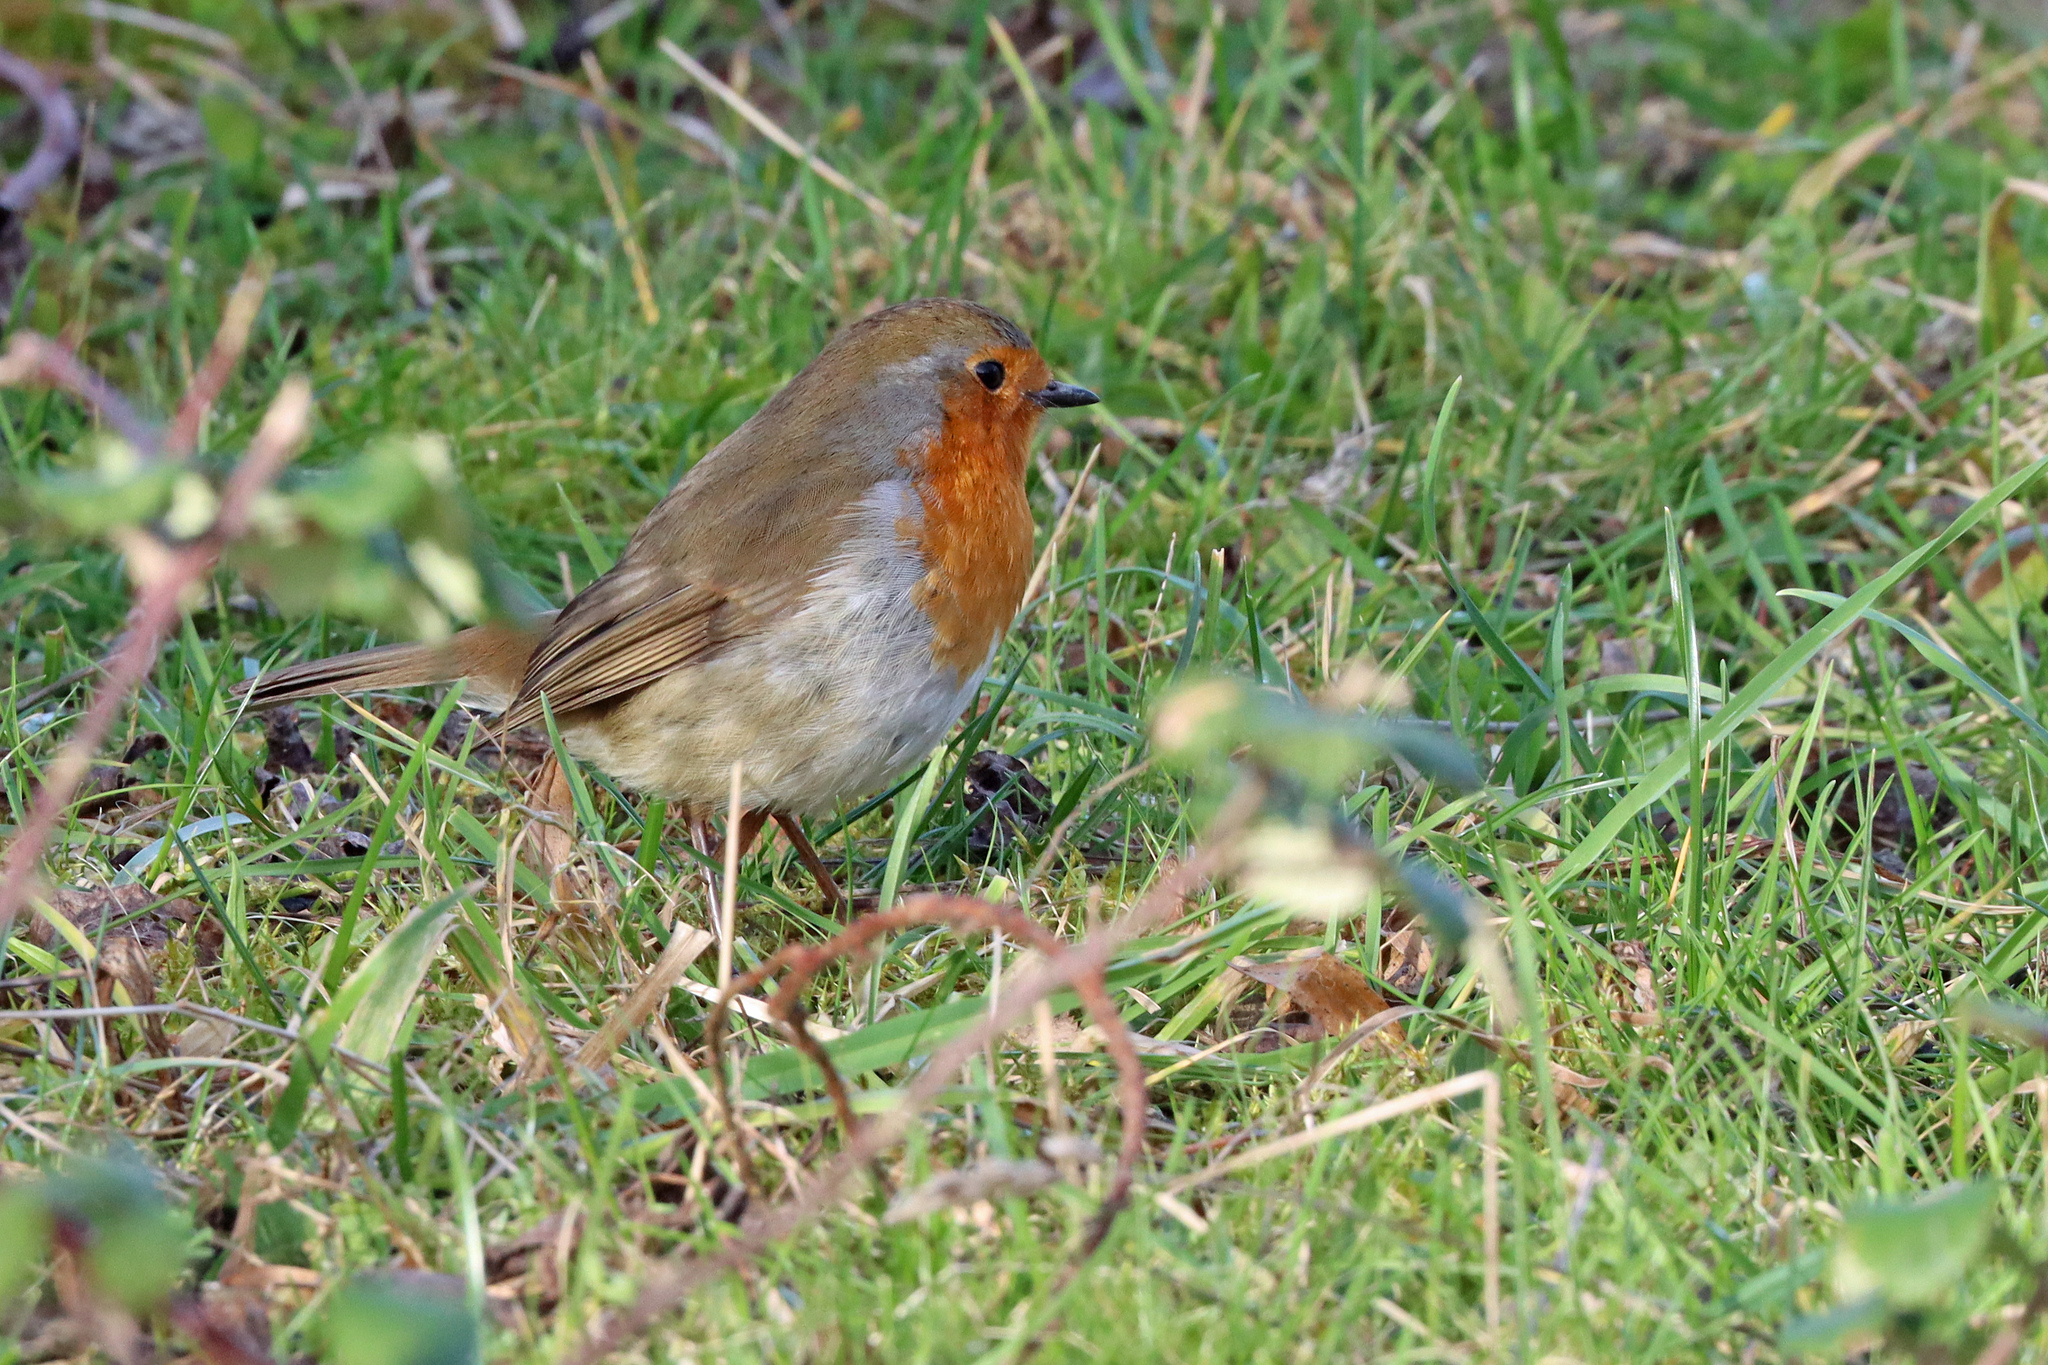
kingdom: Animalia
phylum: Chordata
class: Aves
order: Passeriformes
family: Muscicapidae
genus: Erithacus
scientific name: Erithacus rubecula
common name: European robin
